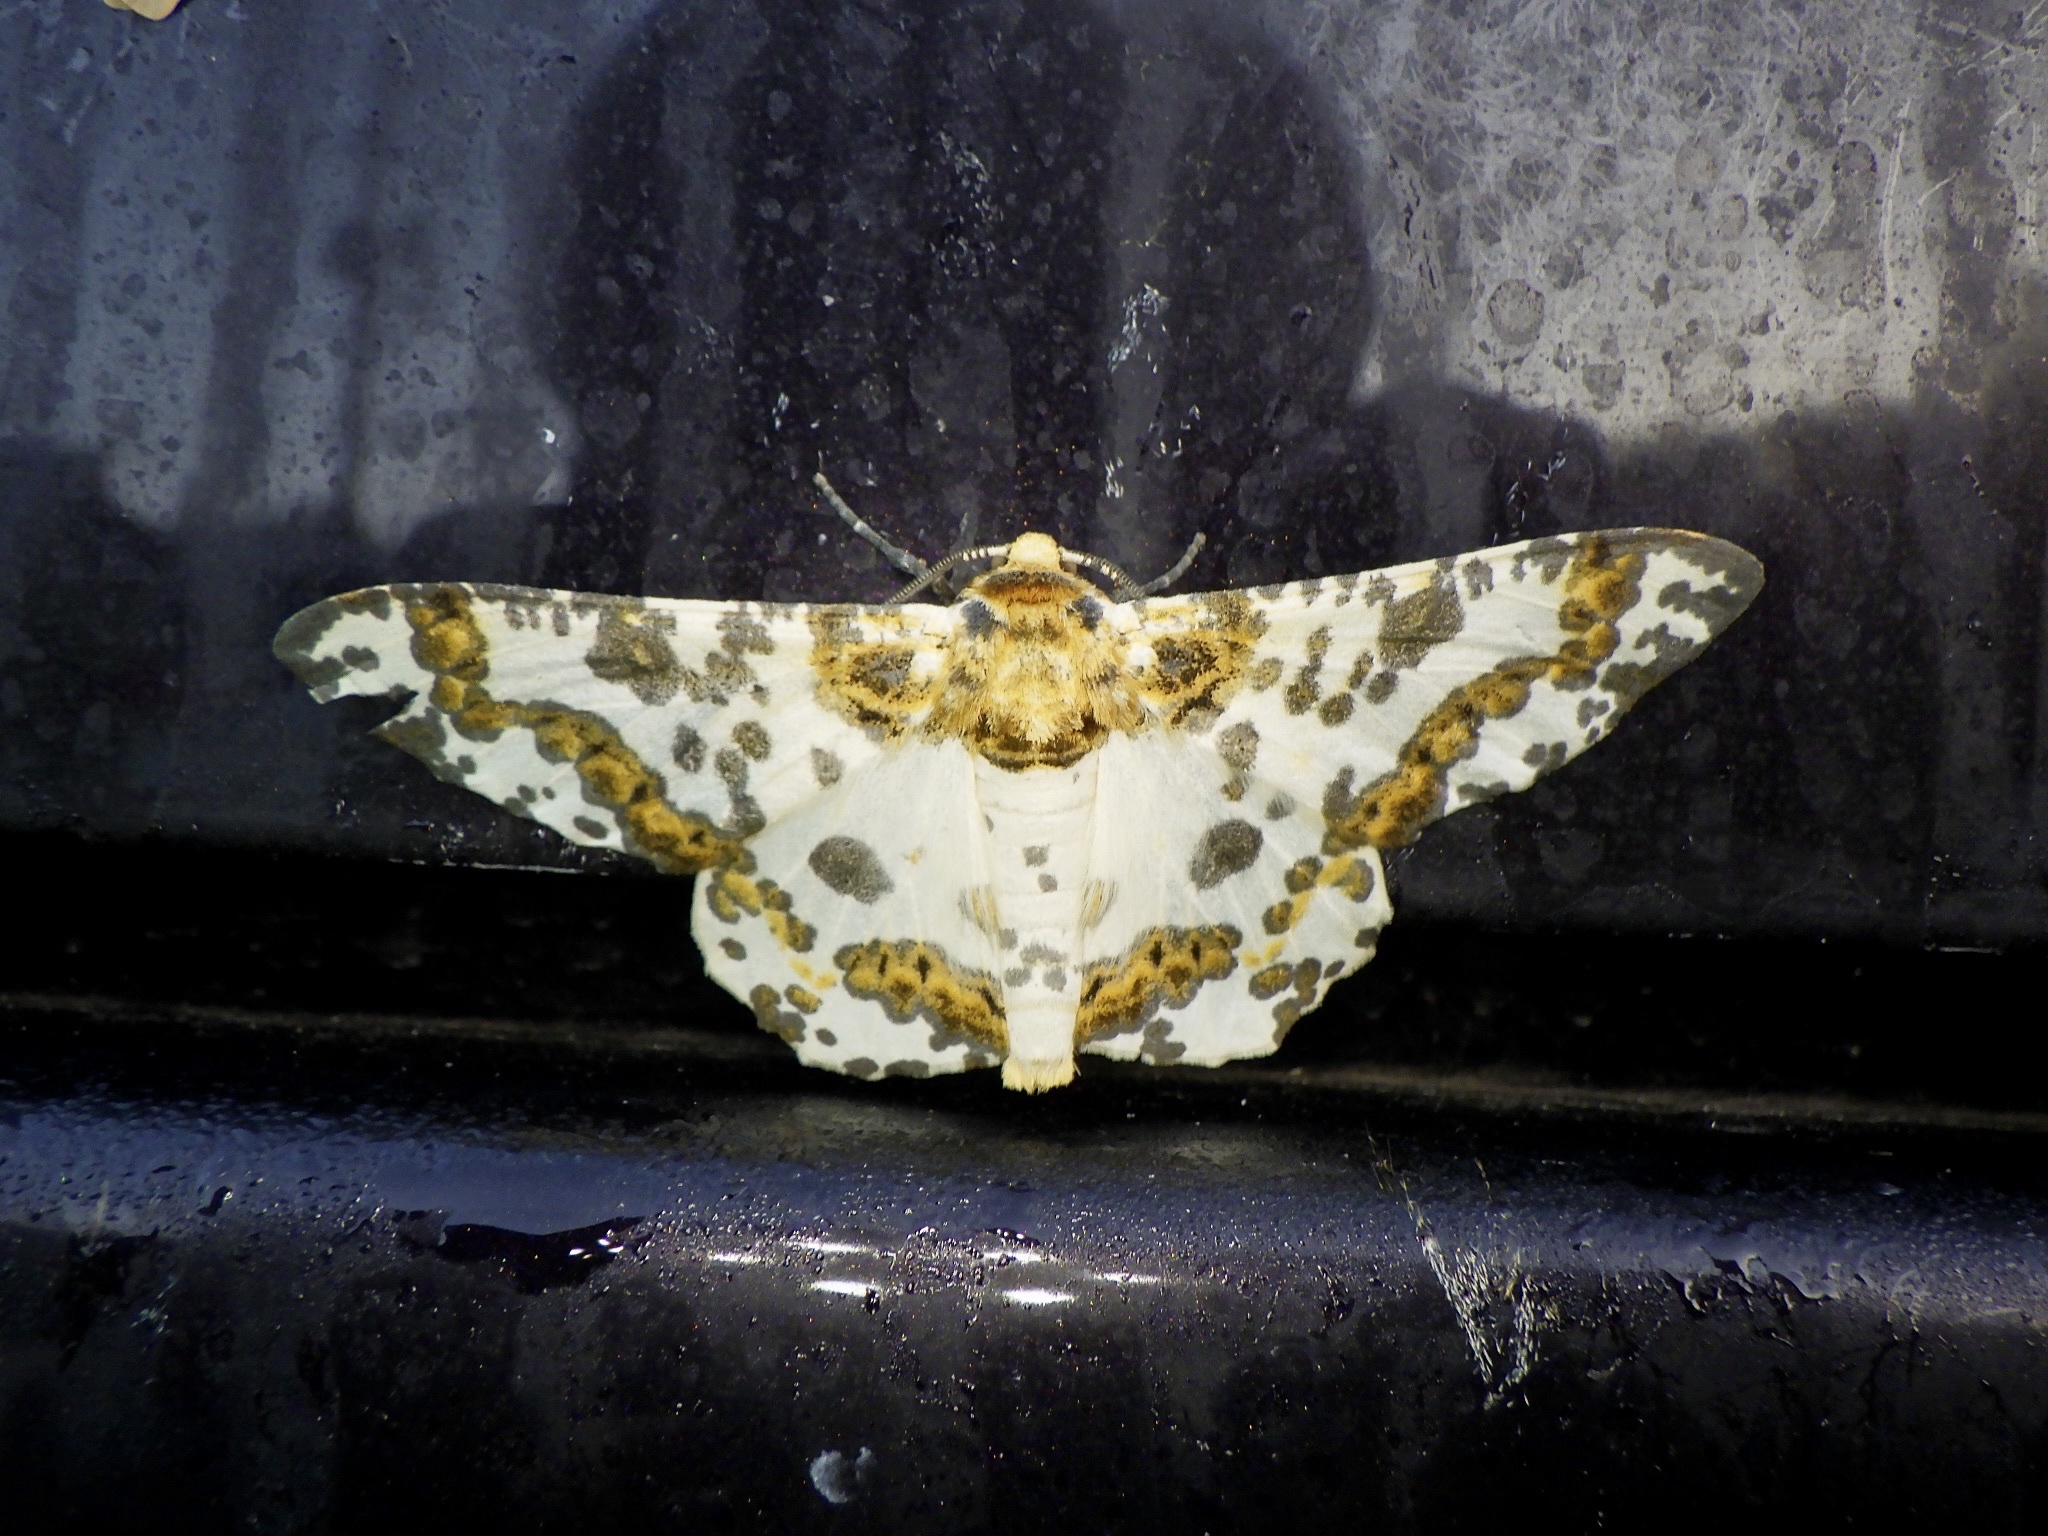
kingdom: Animalia
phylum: Arthropoda
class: Insecta
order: Lepidoptera
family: Geometridae
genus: Biston
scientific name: Biston panterinaria
